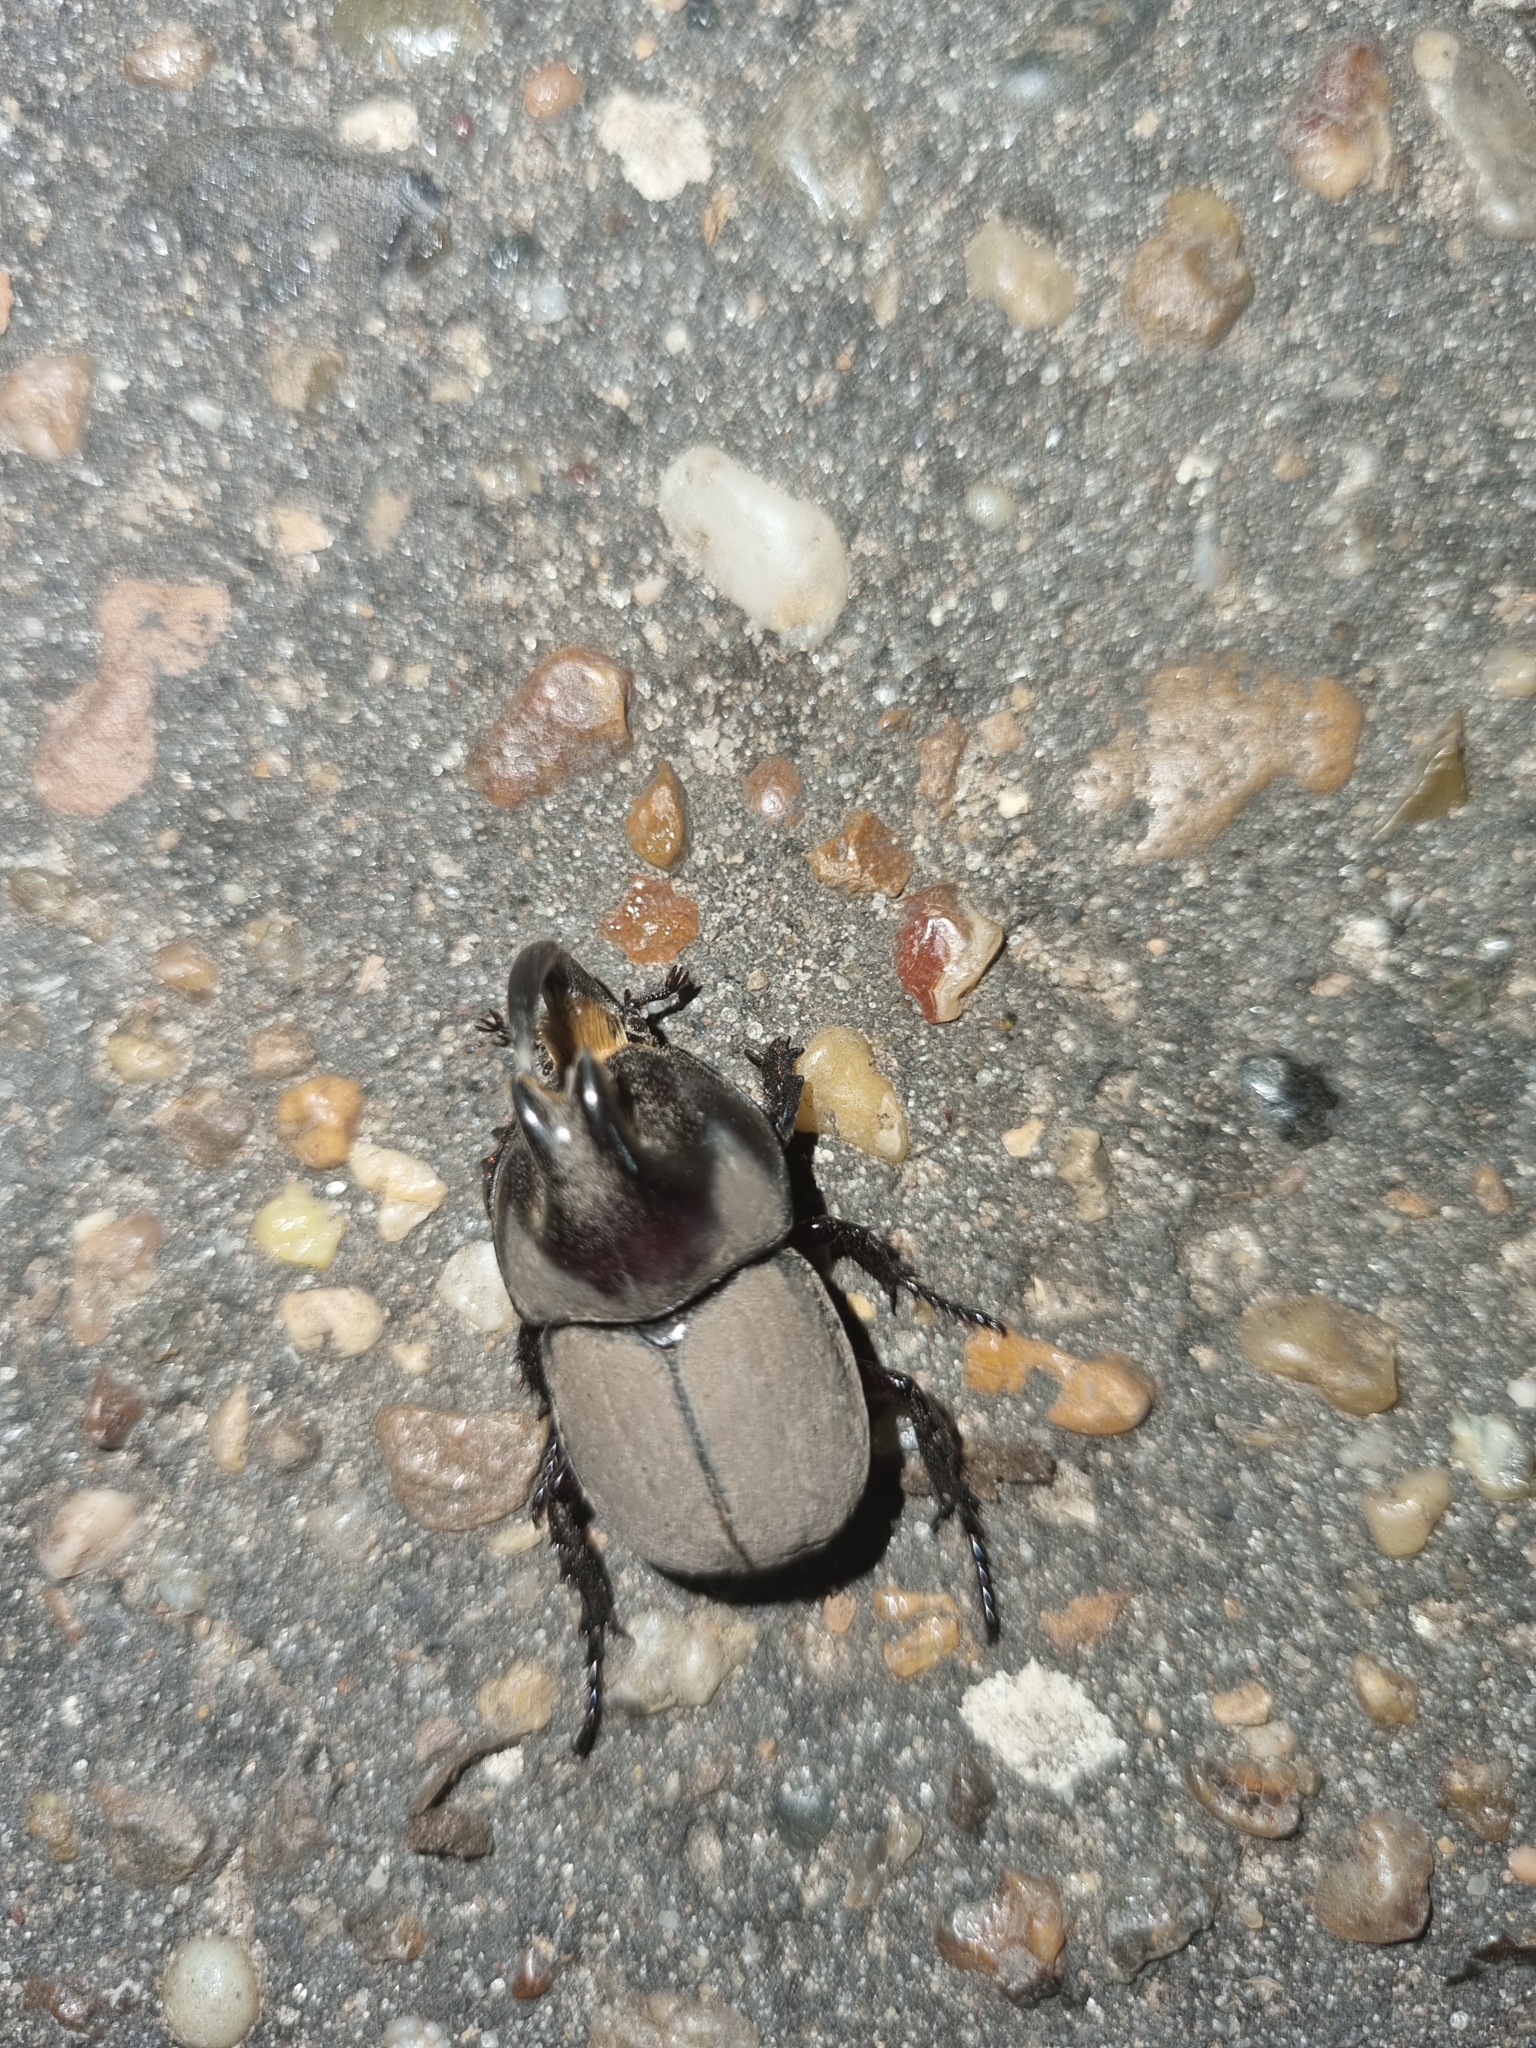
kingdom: Animalia
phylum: Arthropoda
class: Insecta
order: Coleoptera
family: Scarabaeidae
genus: Diloboderus
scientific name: Diloboderus abderus
